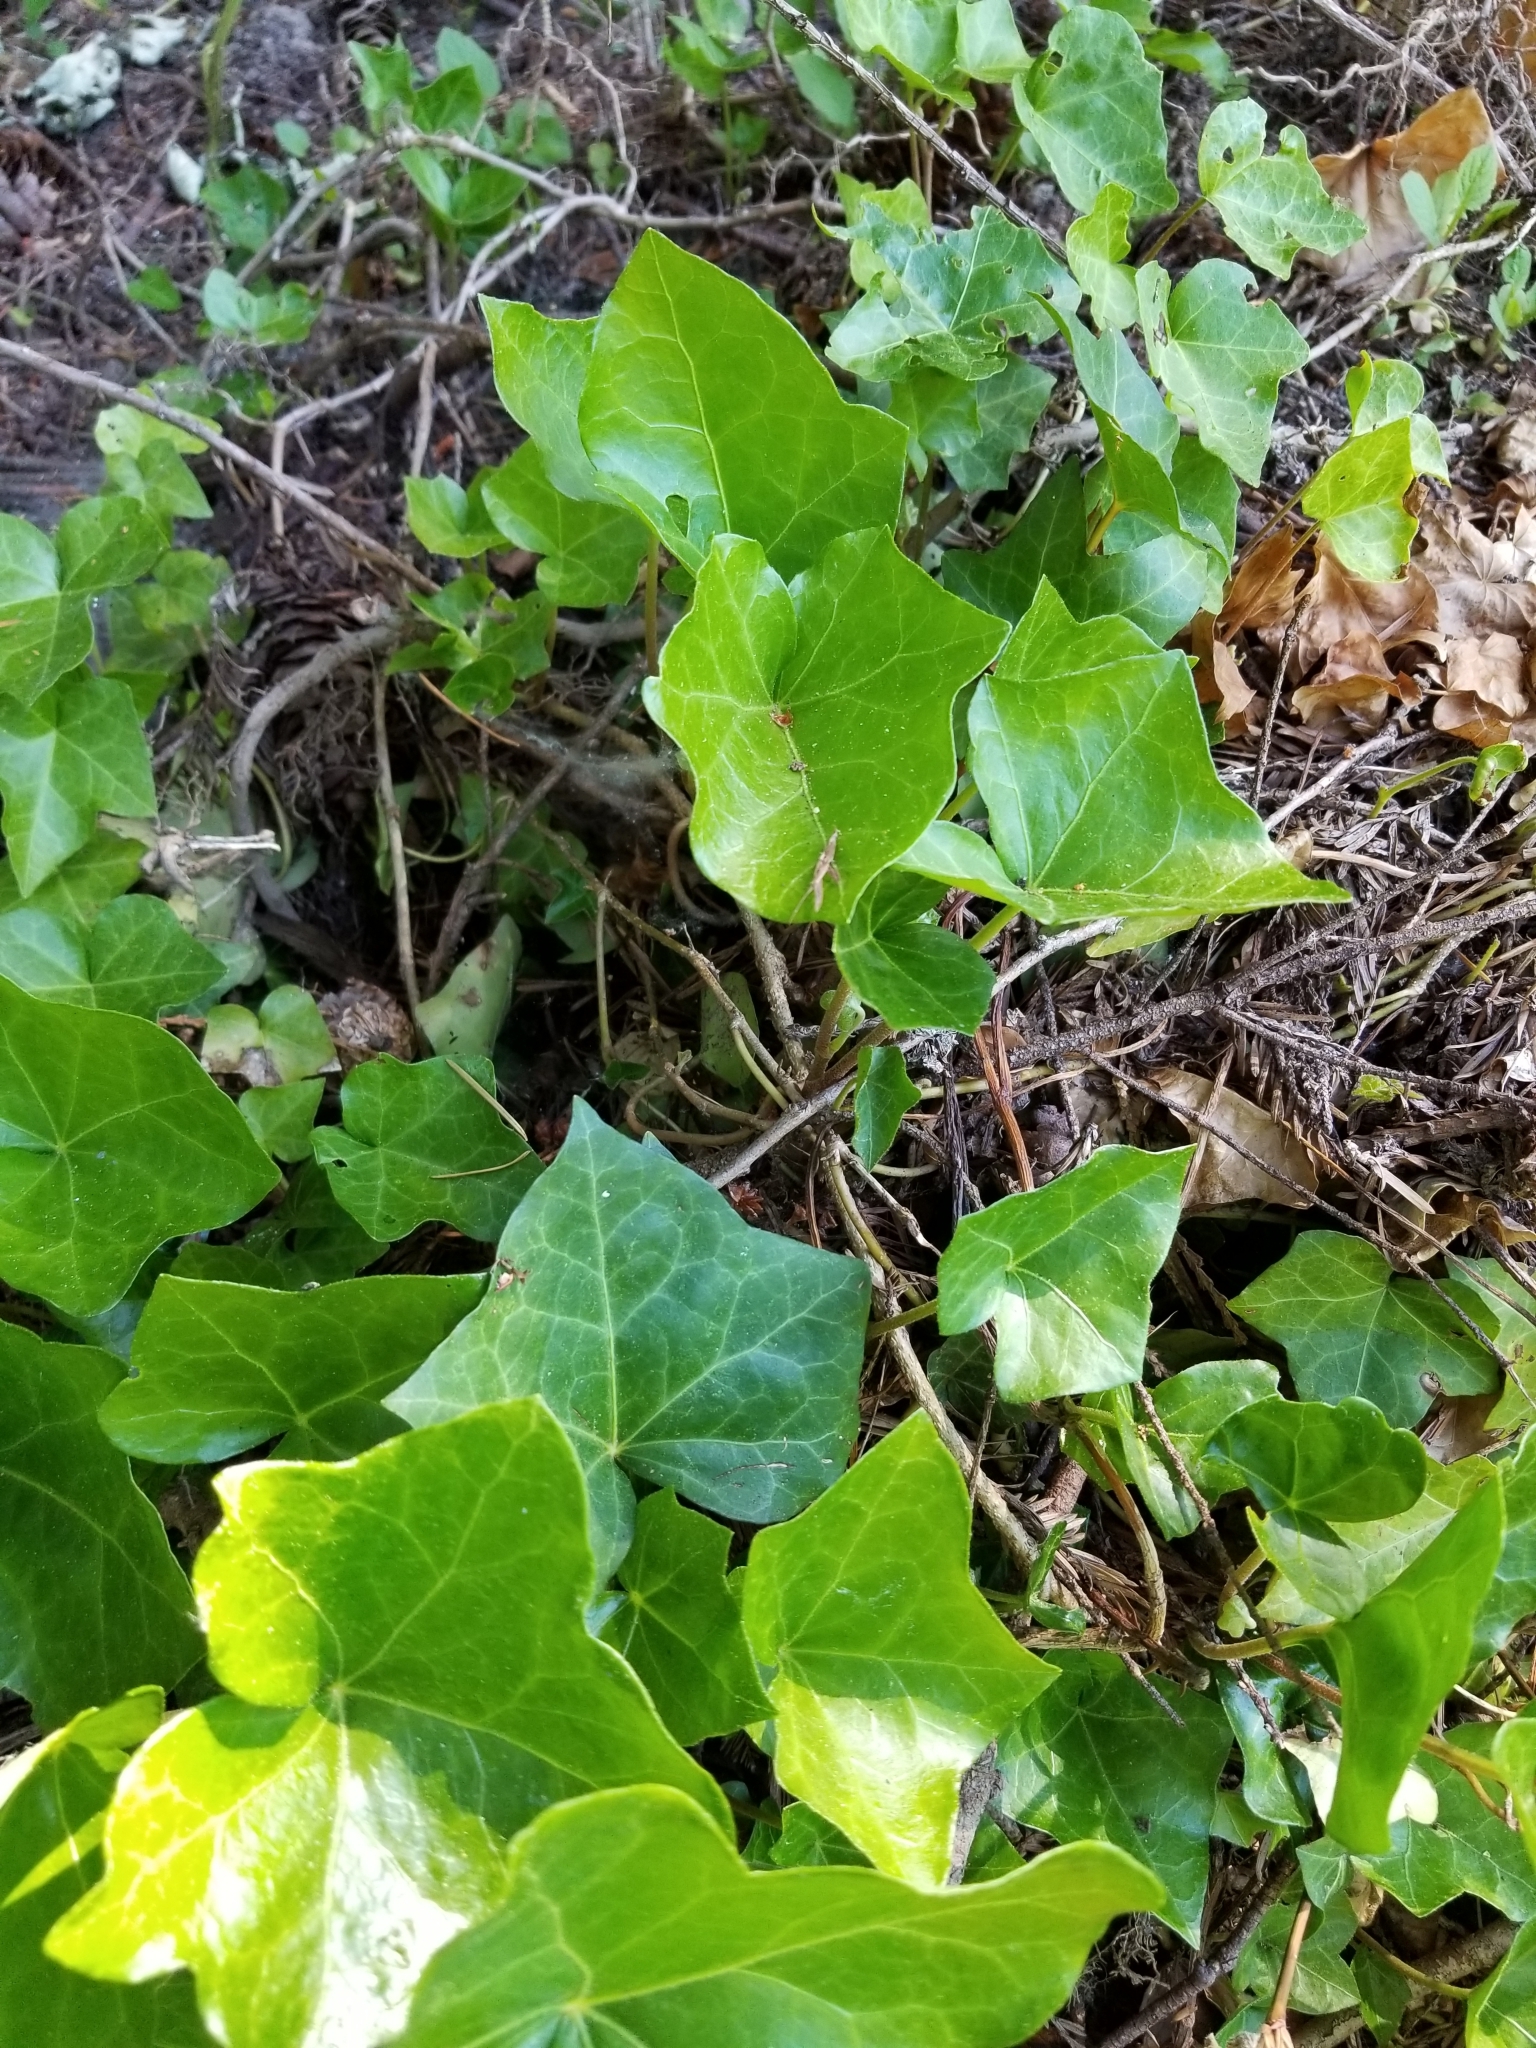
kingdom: Plantae
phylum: Tracheophyta
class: Magnoliopsida
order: Apiales
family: Araliaceae
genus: Hedera
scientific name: Hedera helix
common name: Ivy
